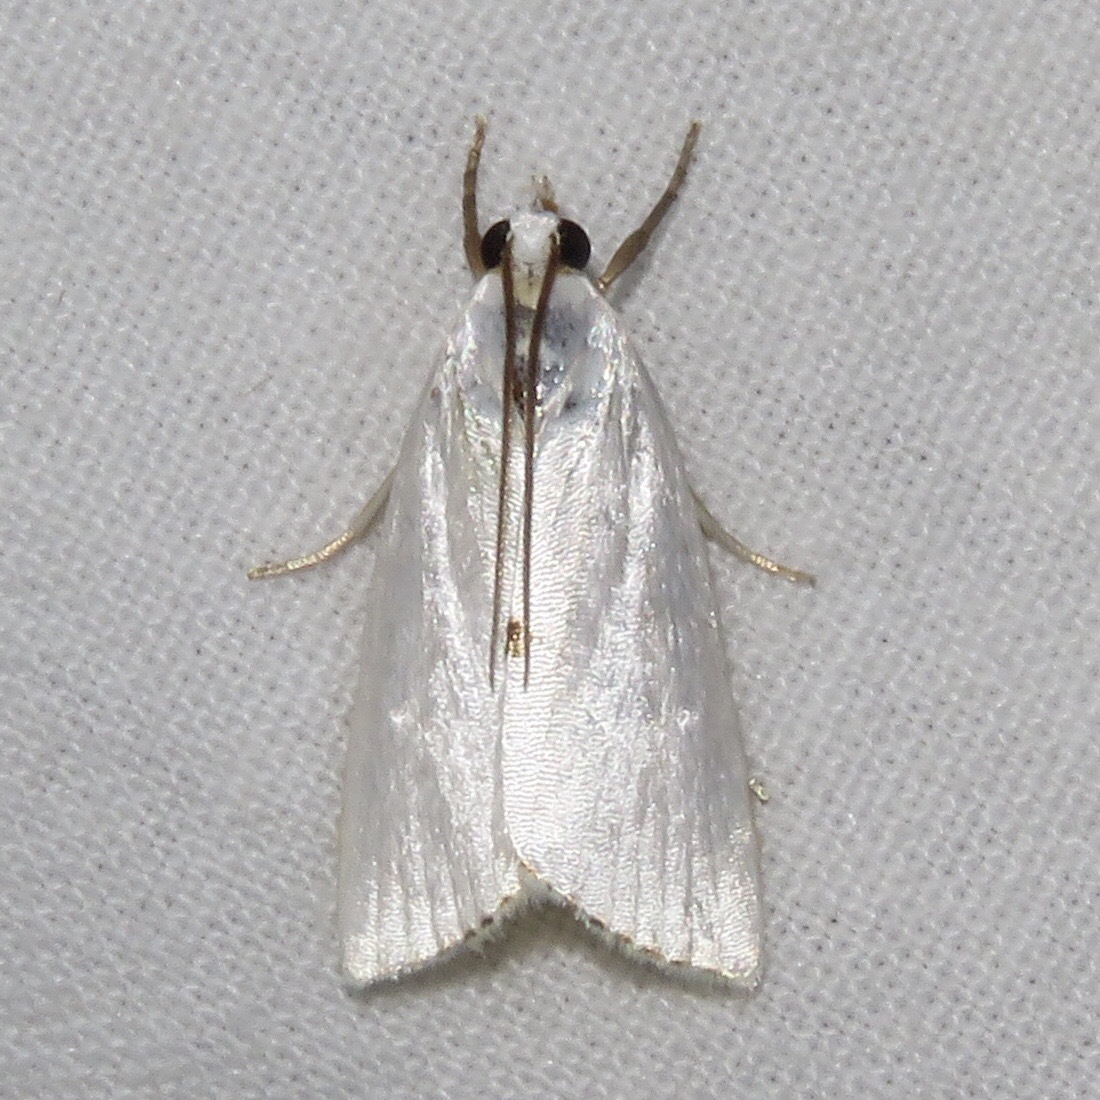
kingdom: Animalia
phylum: Arthropoda
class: Insecta
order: Lepidoptera
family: Crambidae
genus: Argyria
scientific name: Argyria nivalis
